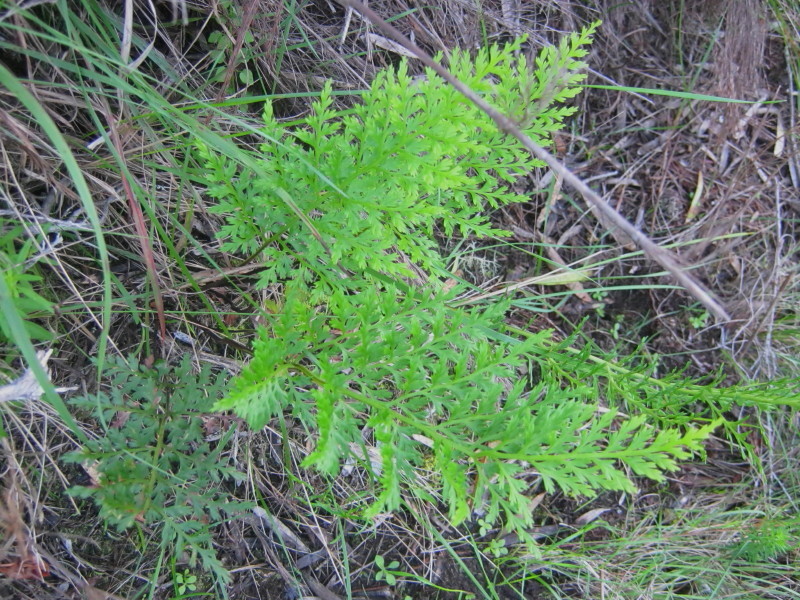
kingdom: Plantae
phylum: Tracheophyta
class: Polypodiopsida
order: Polypodiales
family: Aspleniaceae
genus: Asplenium
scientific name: Asplenium adiantum-nigrum
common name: Black spleenwort
